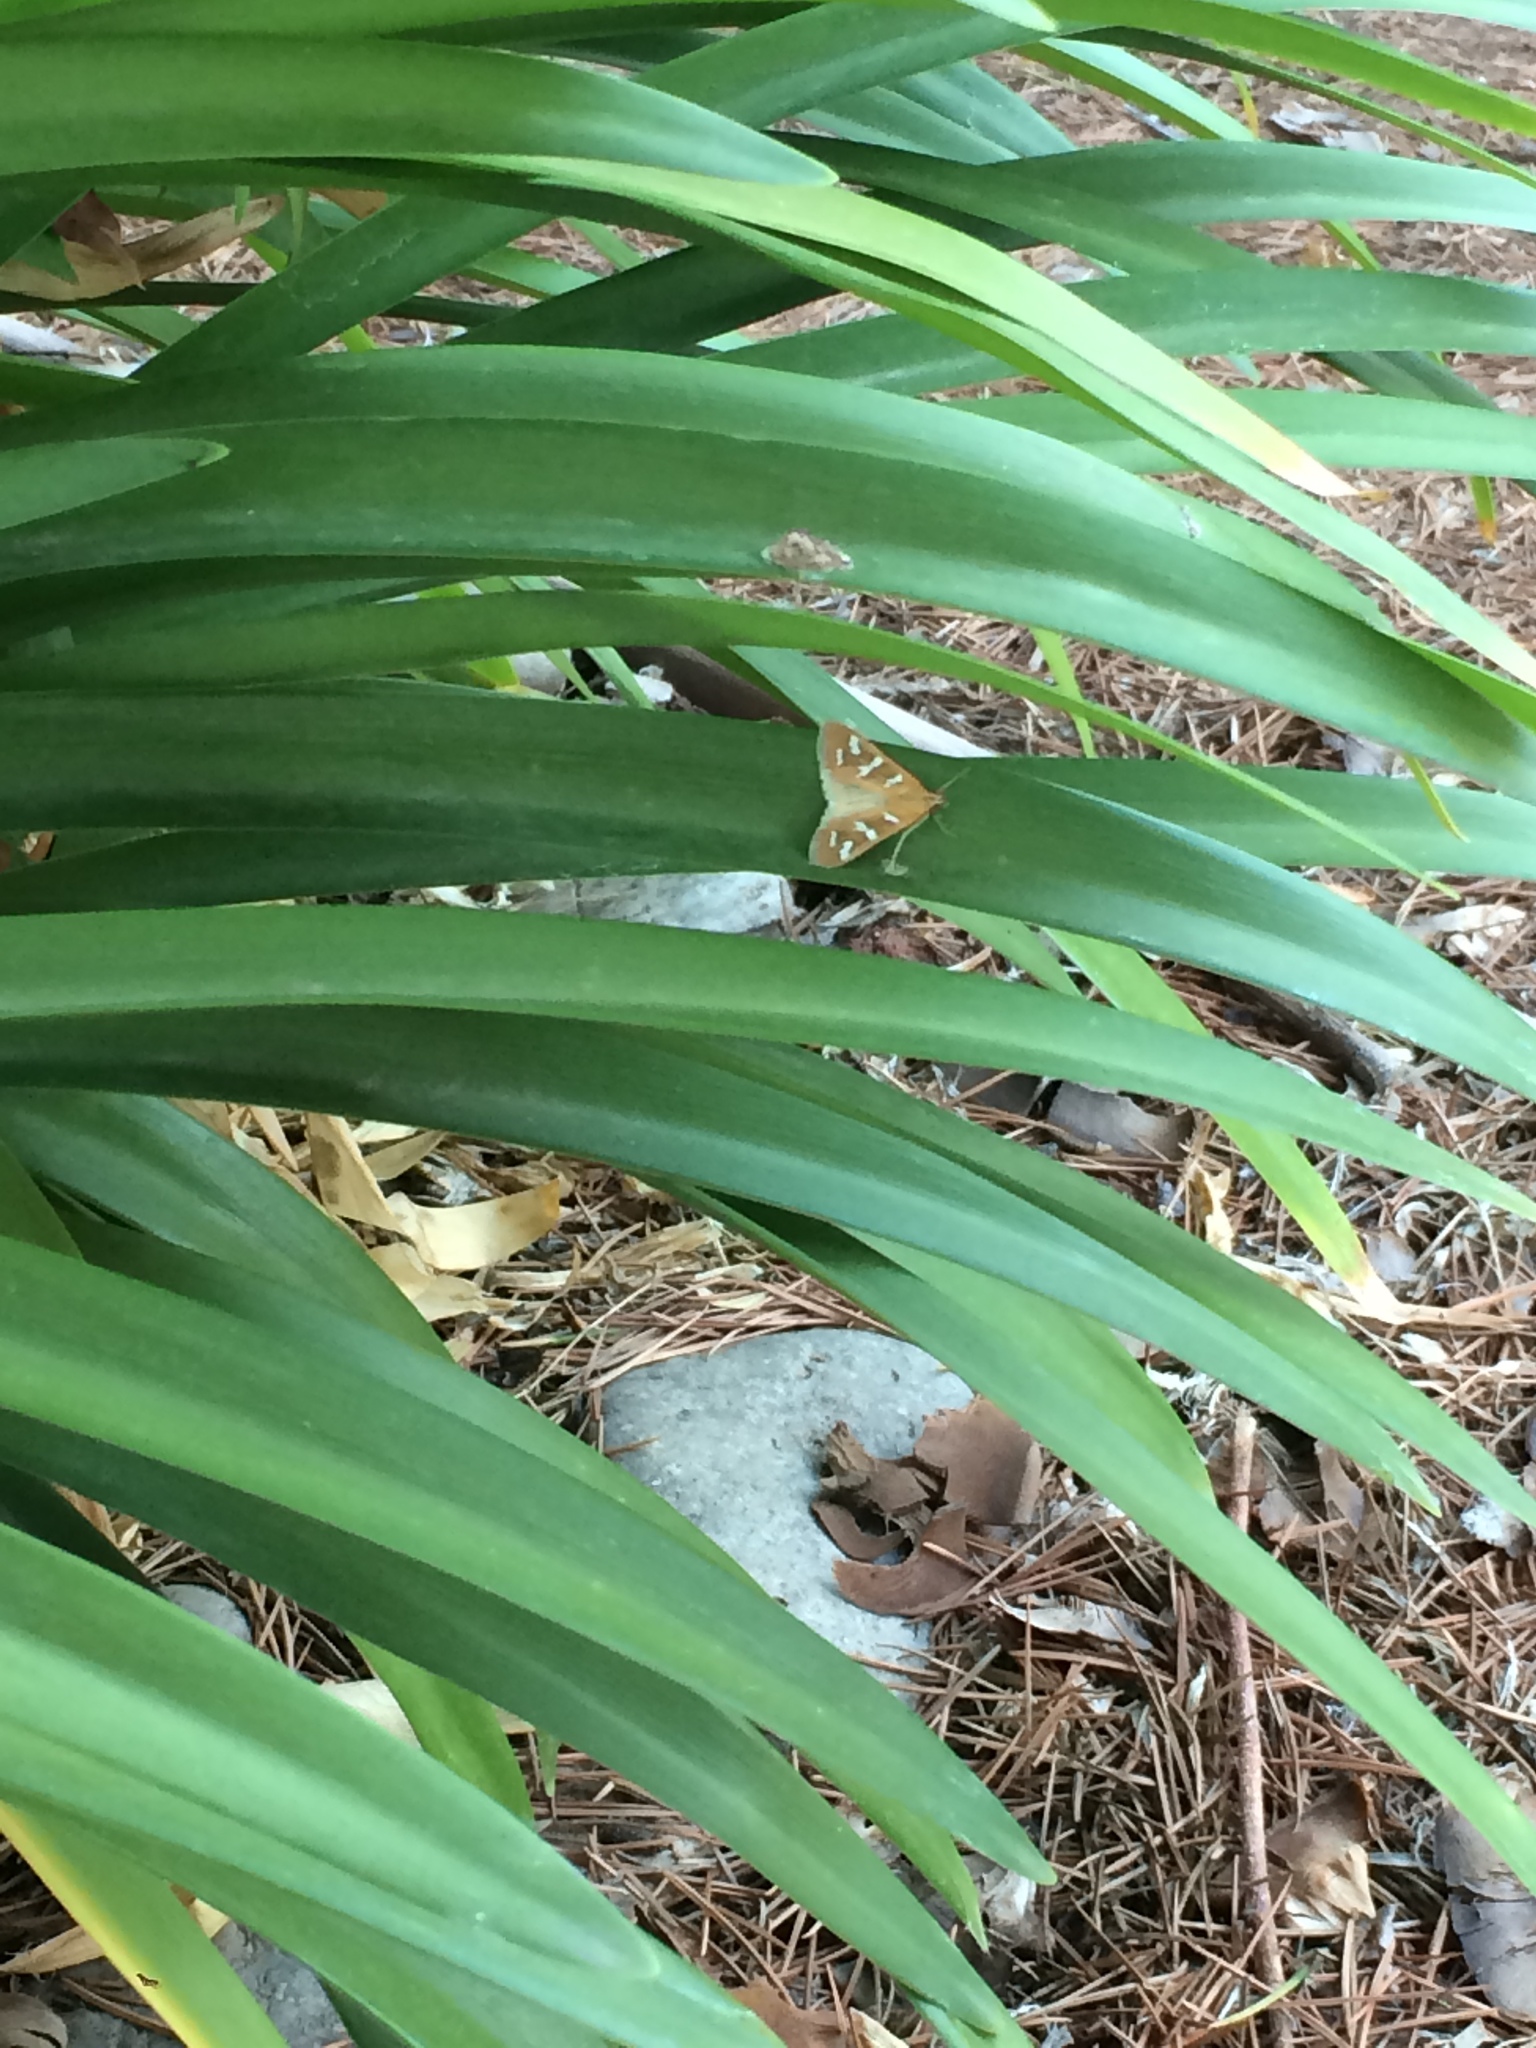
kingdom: Animalia
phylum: Arthropoda
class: Insecta
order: Lepidoptera
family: Crambidae
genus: Diastictis
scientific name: Diastictis fracturalis
